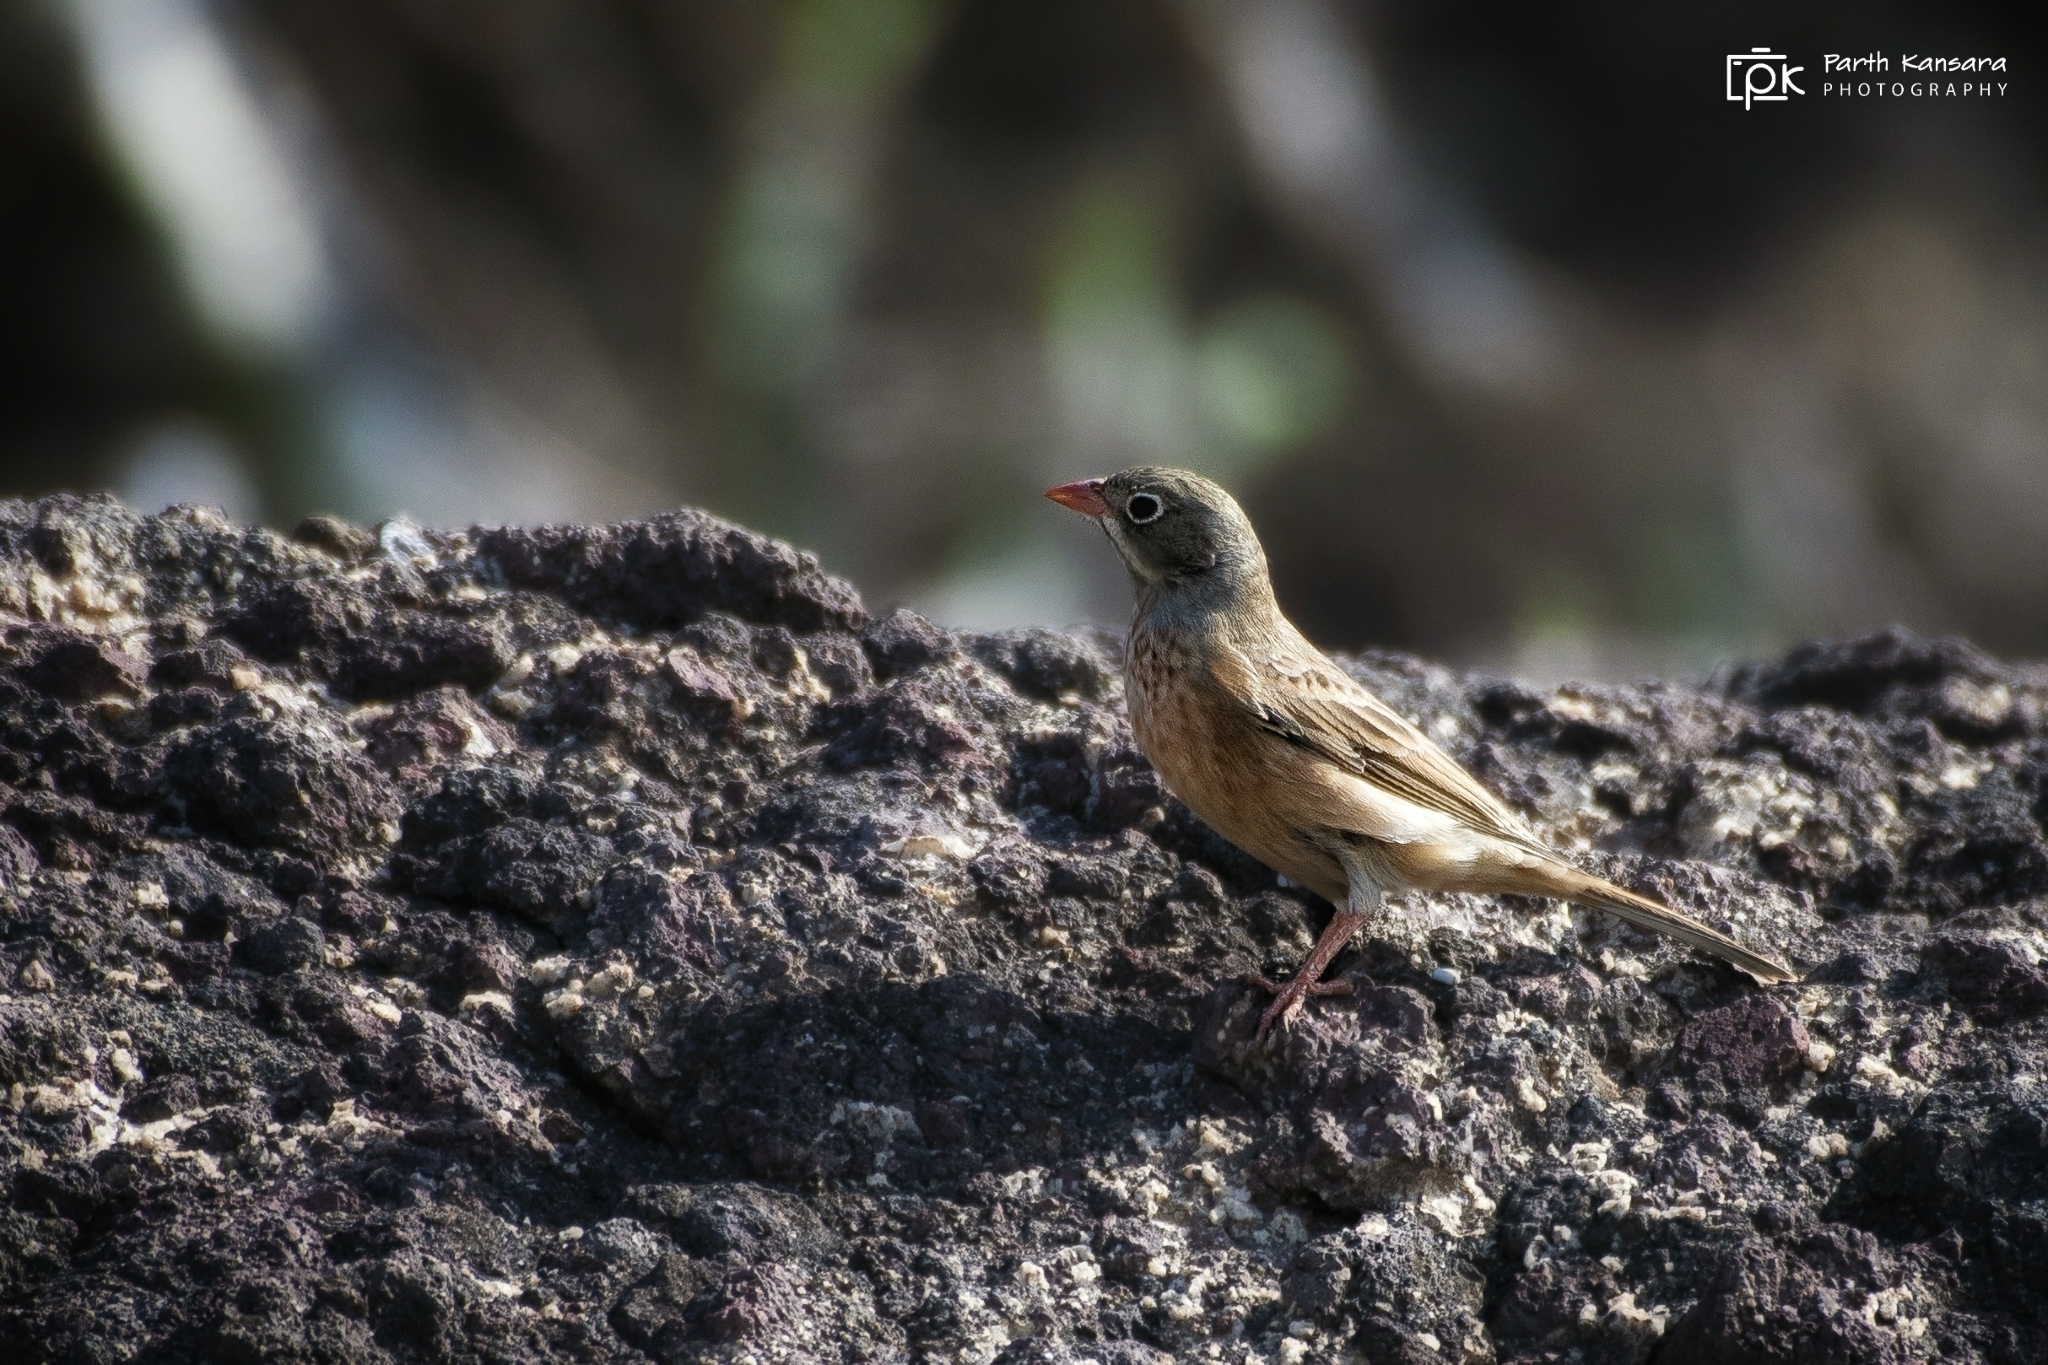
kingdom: Animalia
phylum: Chordata
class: Aves
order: Passeriformes
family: Emberizidae
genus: Emberiza
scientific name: Emberiza buchanani
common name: Grey-necked bunting
